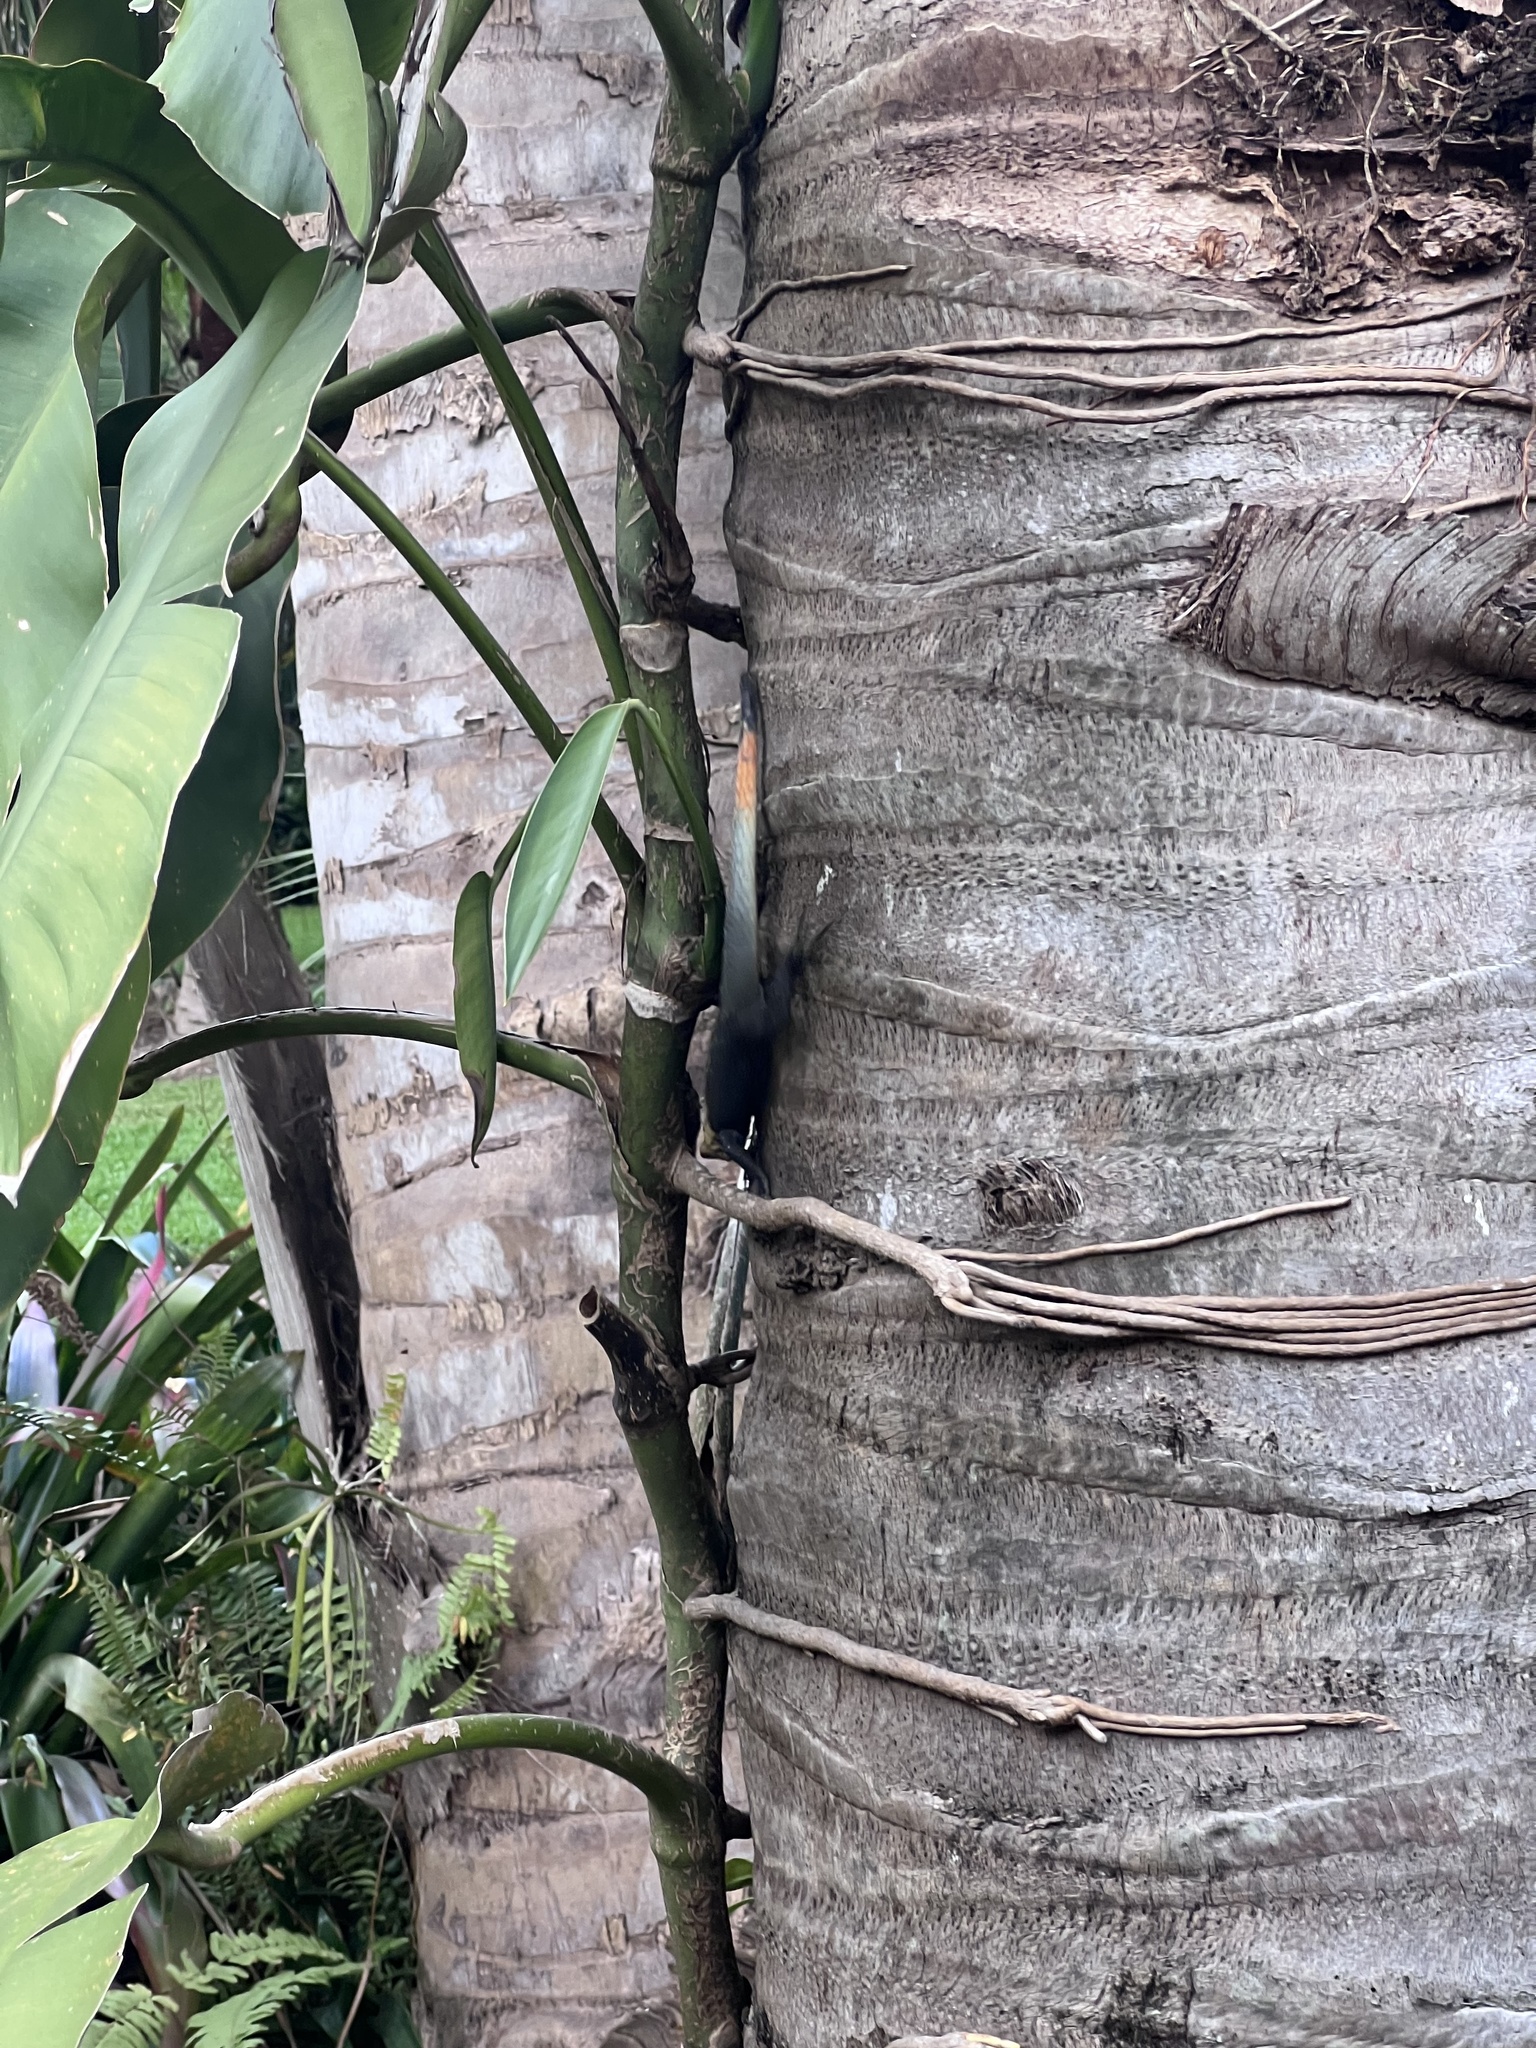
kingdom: Animalia
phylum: Chordata
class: Squamata
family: Agamidae
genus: Agama
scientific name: Agama picticauda
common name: Red-headed agama
